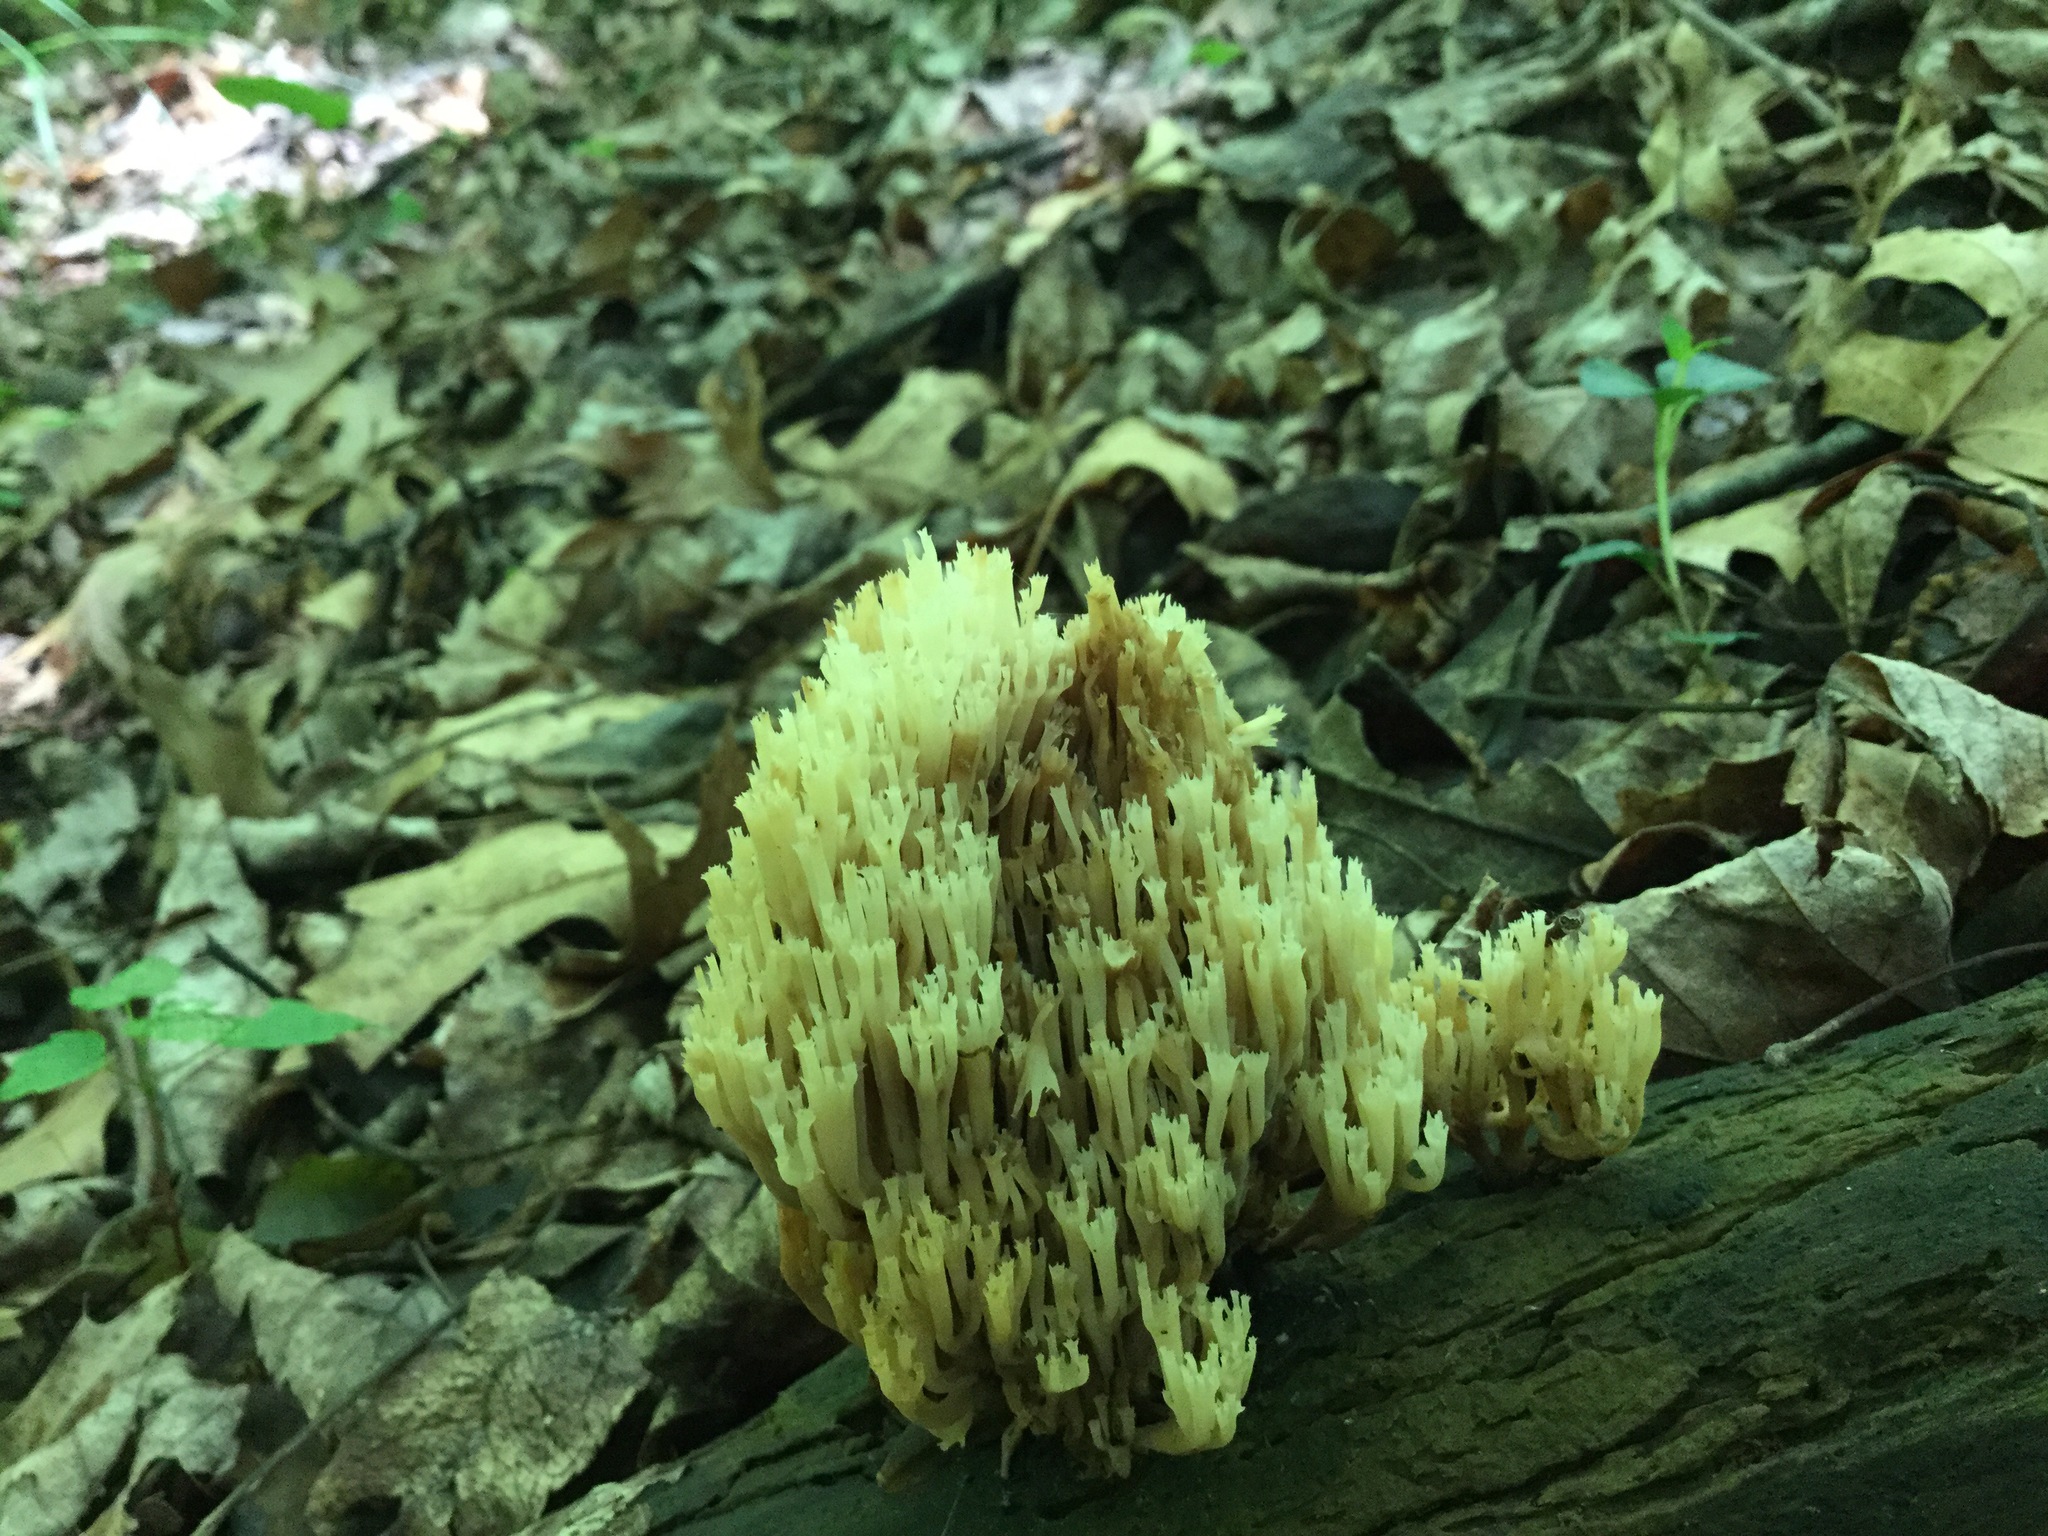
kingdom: Fungi
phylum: Basidiomycota
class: Agaricomycetes
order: Russulales
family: Auriscalpiaceae
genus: Artomyces
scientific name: Artomyces pyxidatus
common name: Crown-tipped coral fungus
